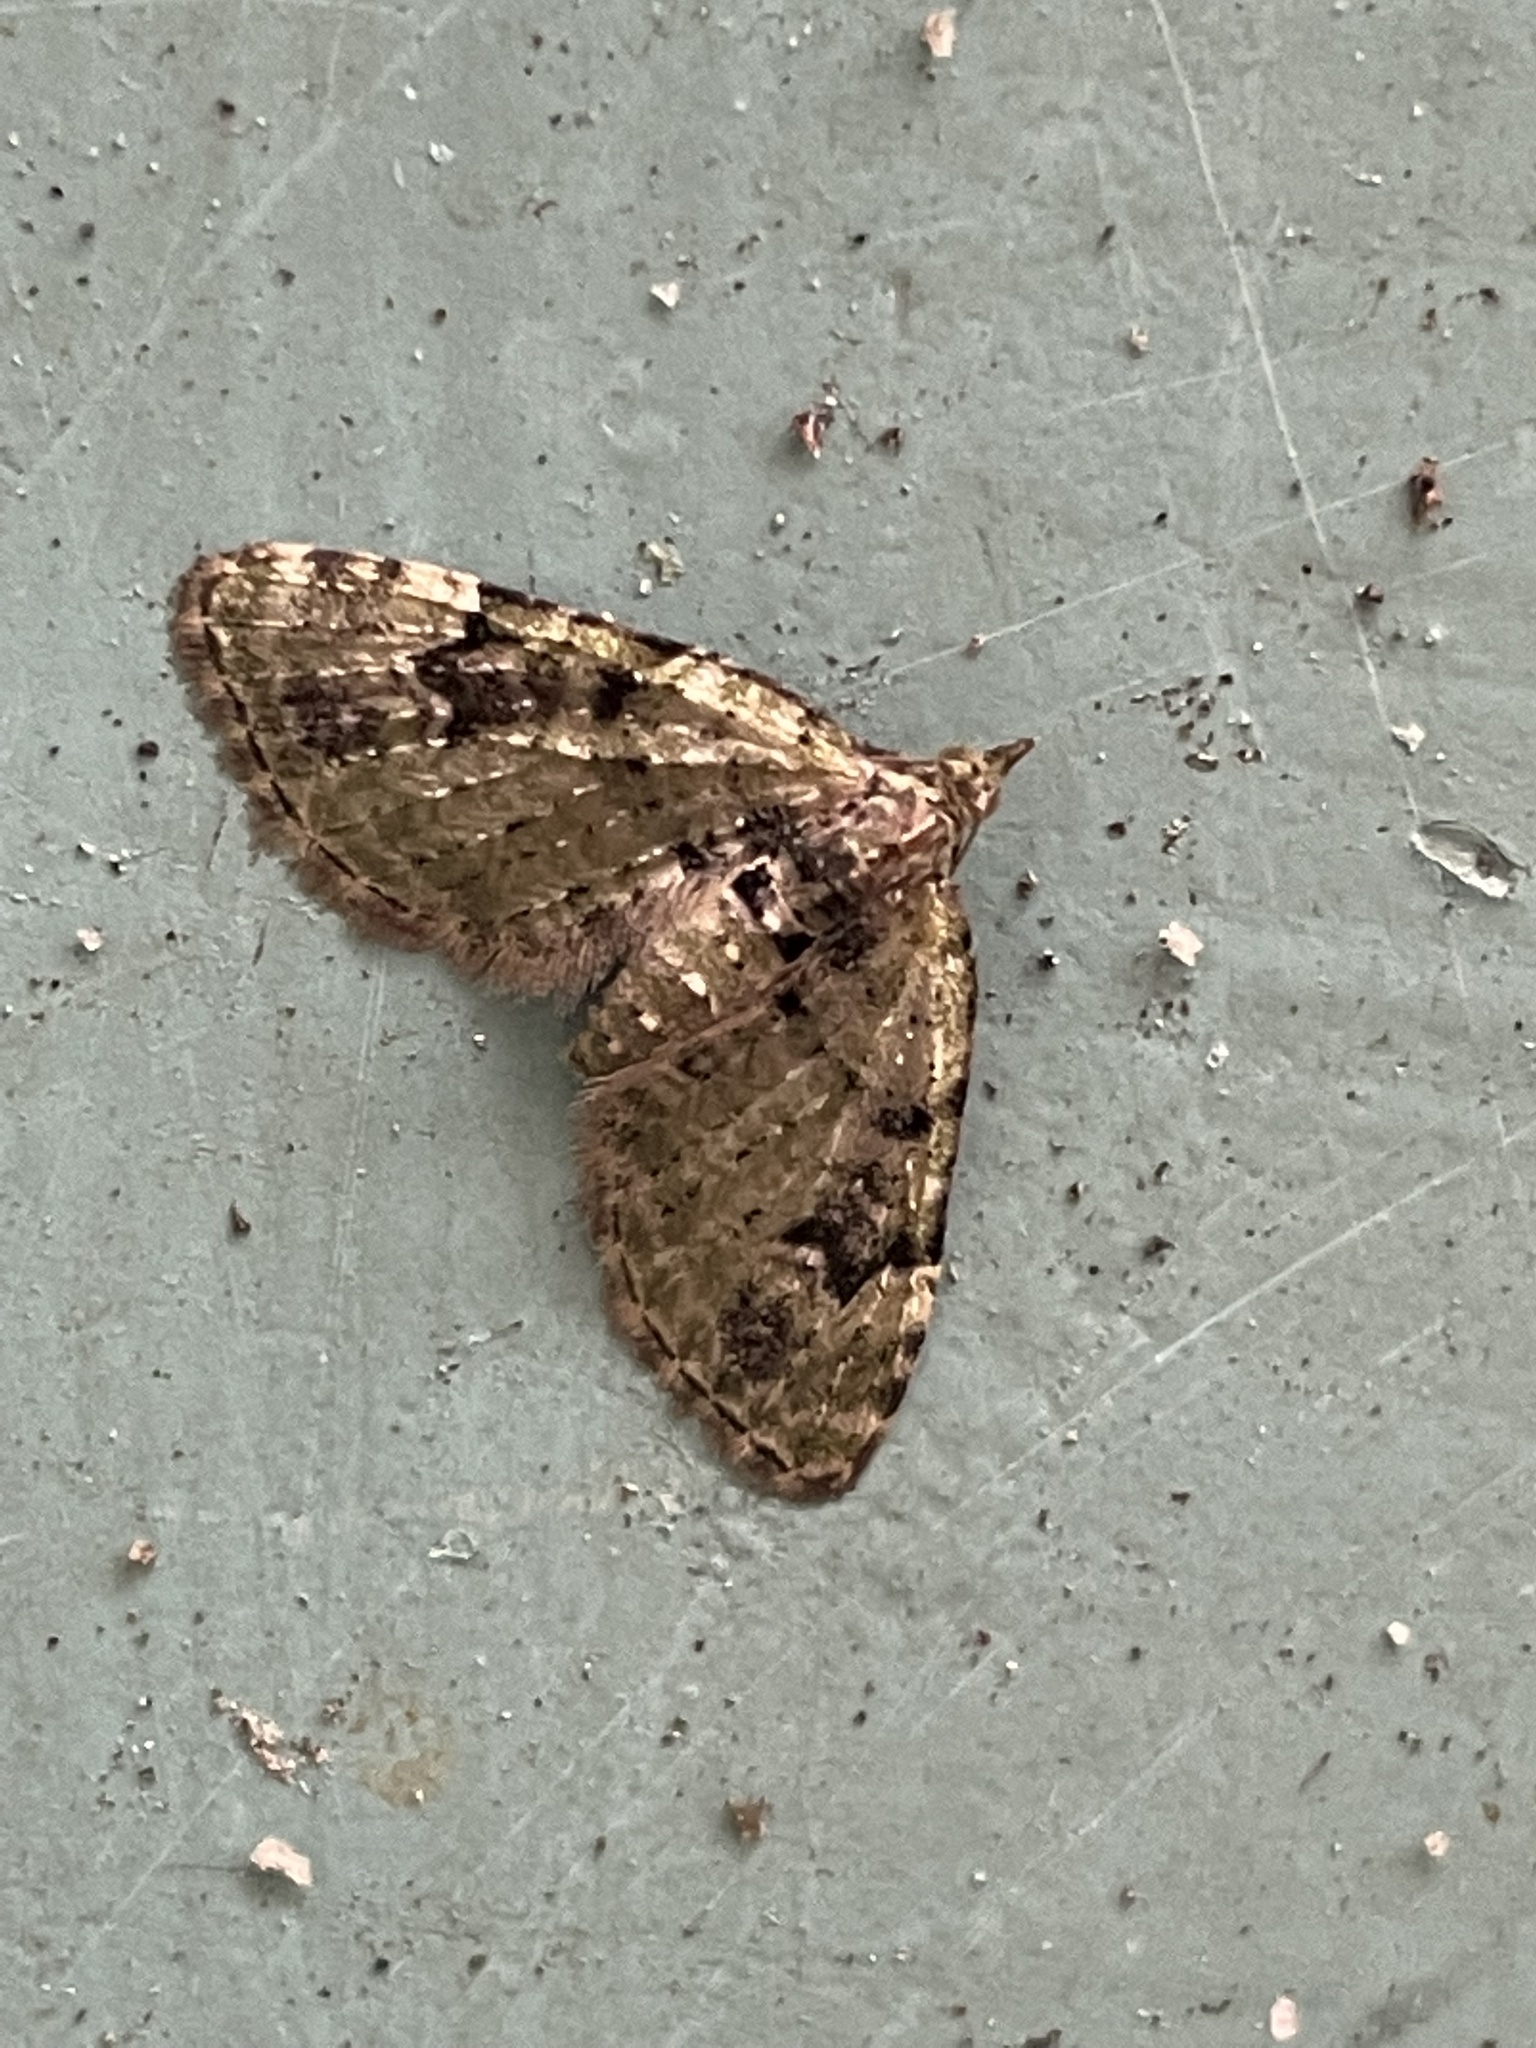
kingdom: Animalia
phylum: Arthropoda
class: Insecta
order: Lepidoptera
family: Geometridae
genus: Chloroclystis
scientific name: Chloroclystis v-ata
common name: V-pug
